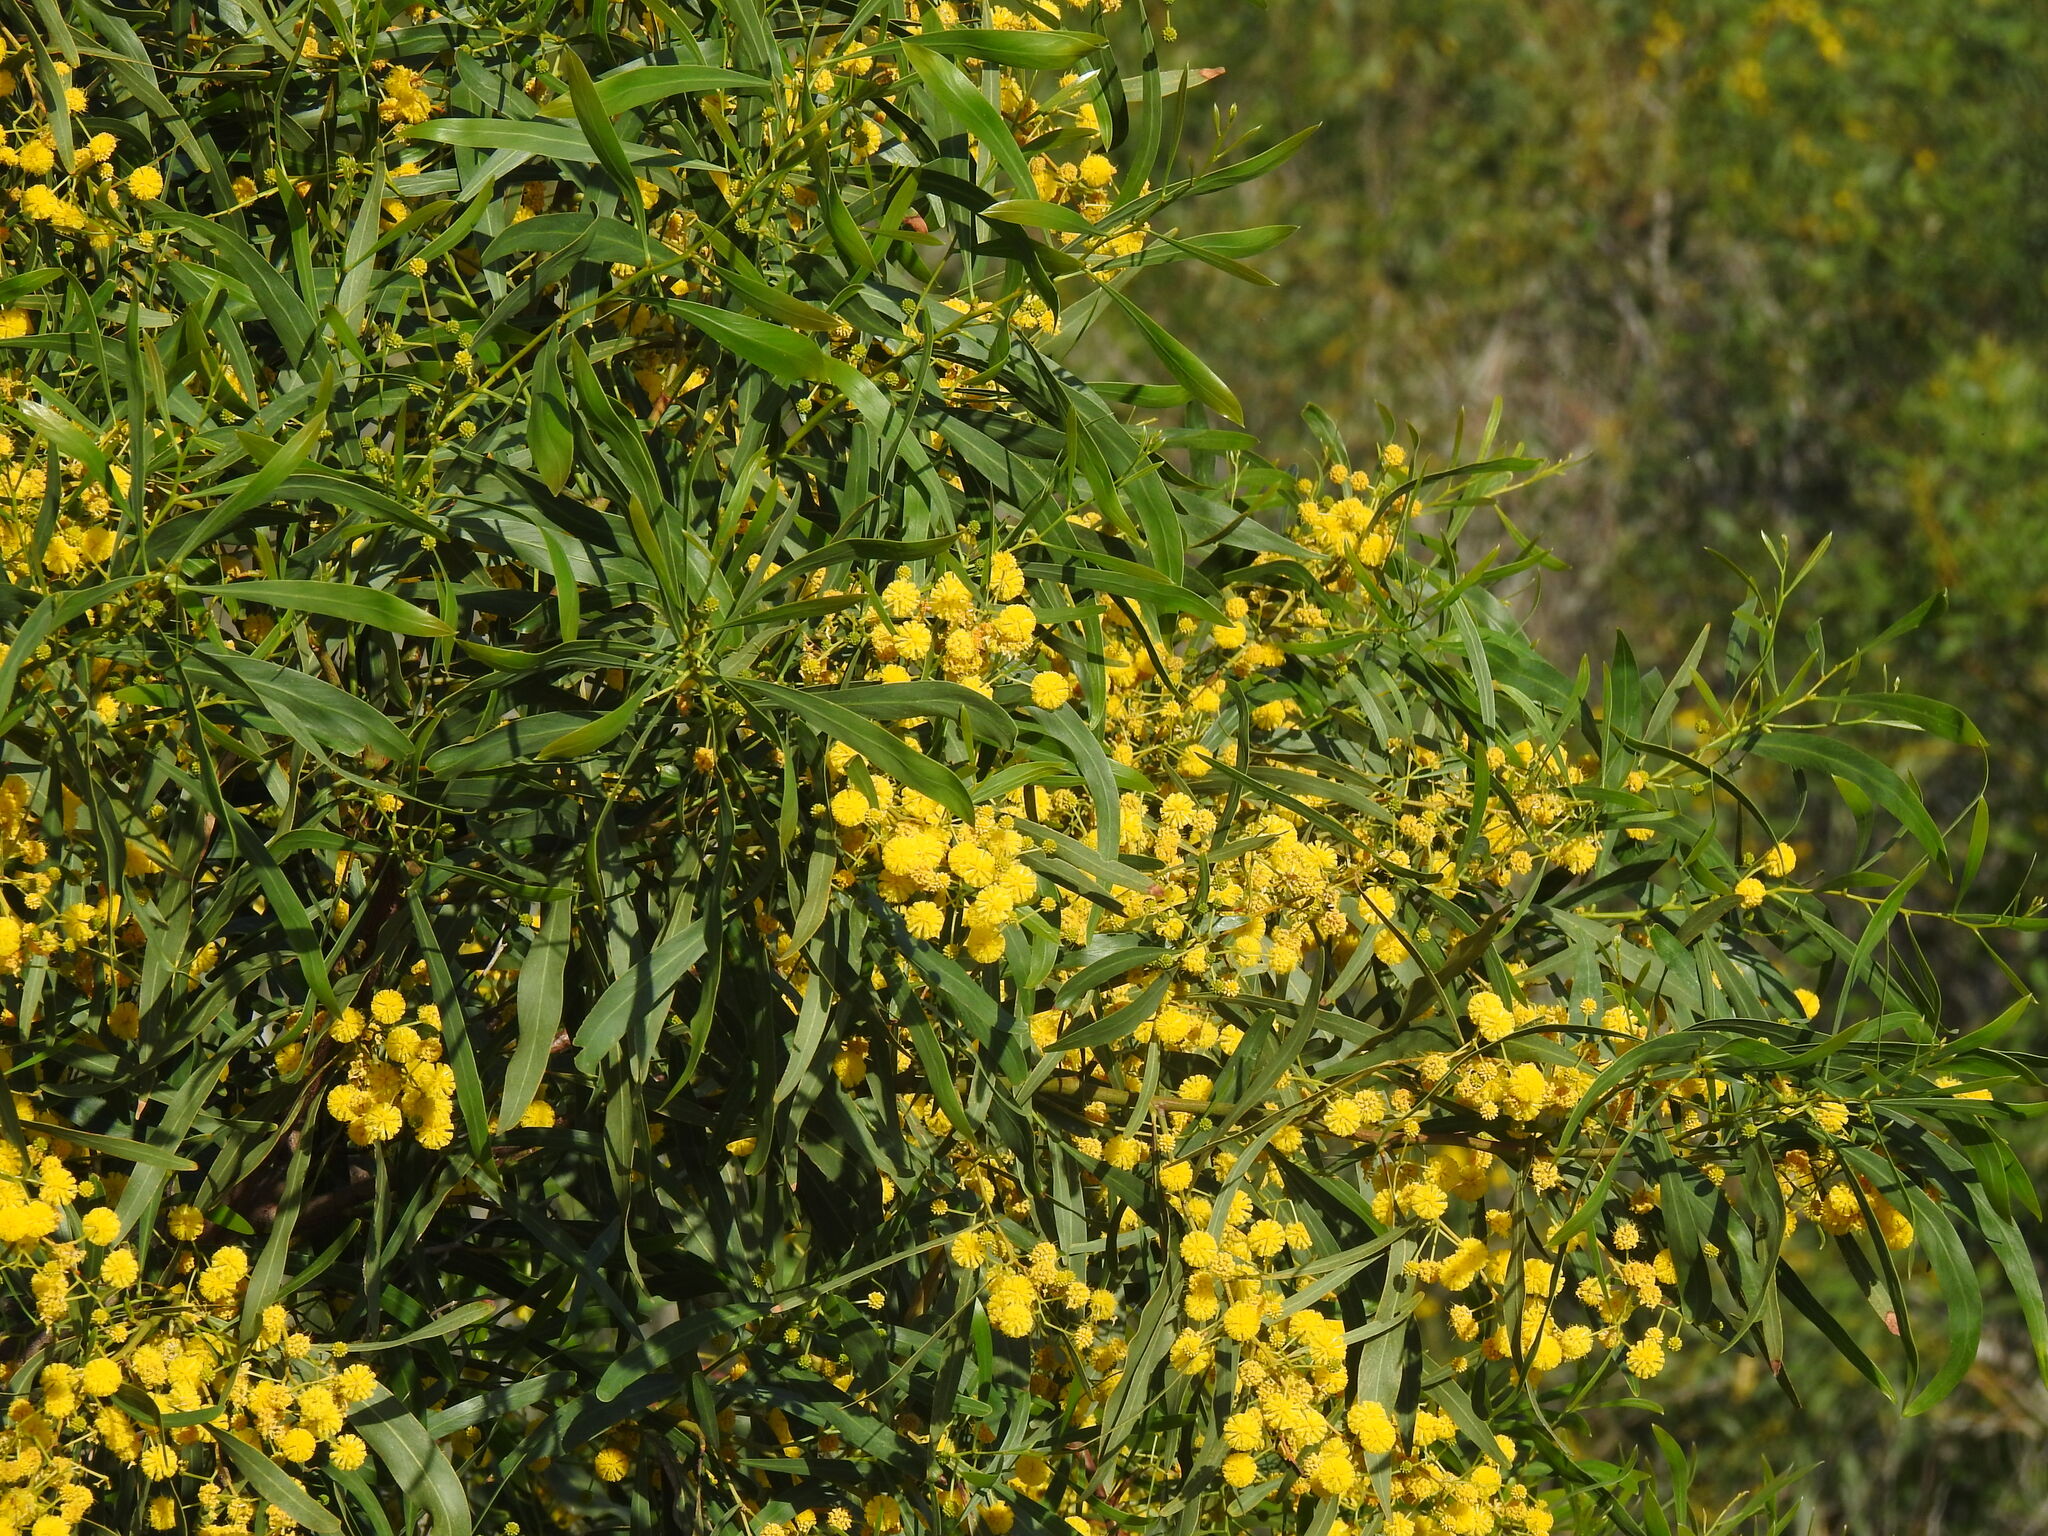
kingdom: Plantae
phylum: Tracheophyta
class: Magnoliopsida
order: Fabales
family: Fabaceae
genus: Acacia
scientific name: Acacia saligna
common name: Orange wattle
